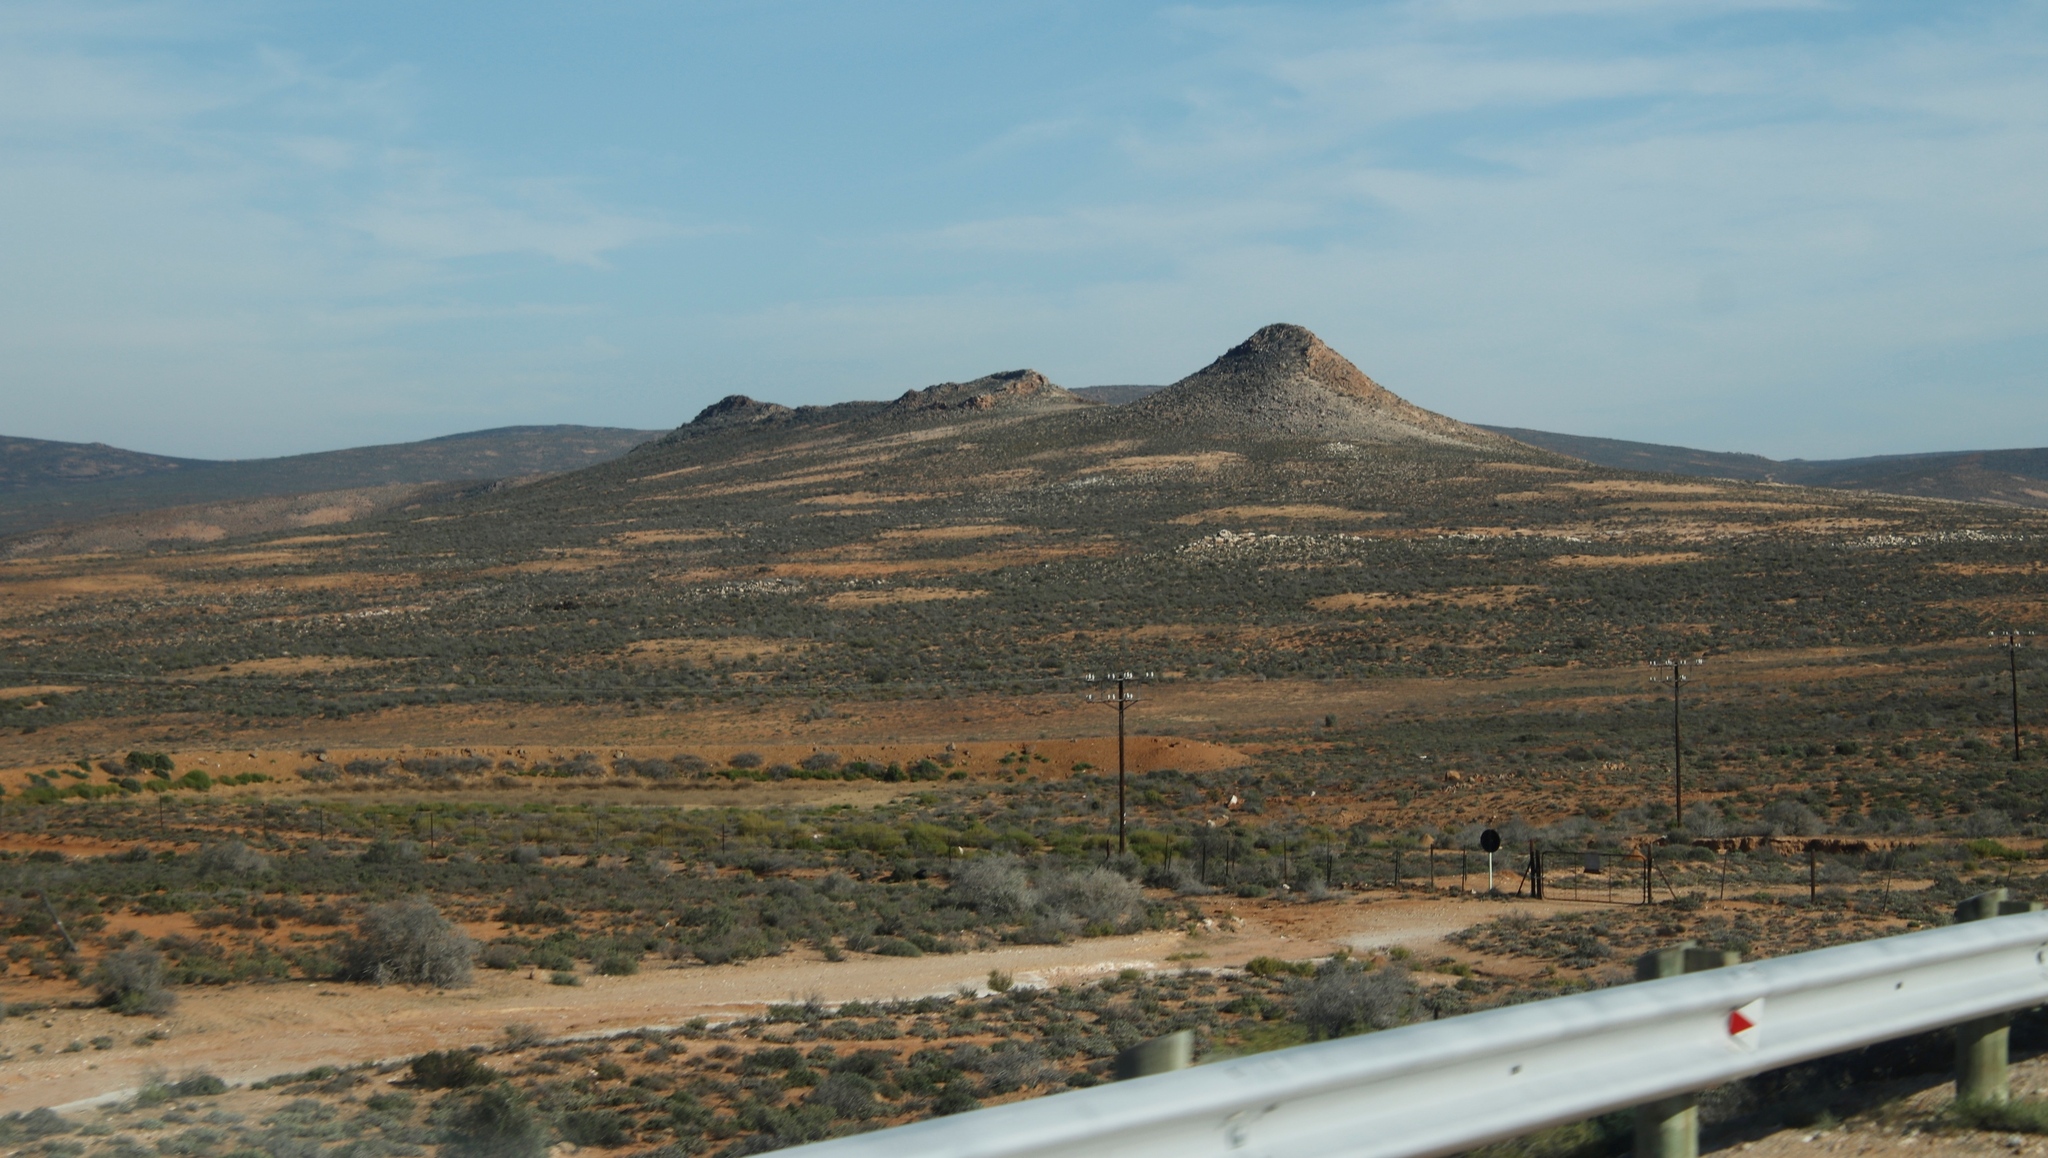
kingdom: Plantae
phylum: Tracheophyta
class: Magnoliopsida
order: Fabales
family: Fabaceae
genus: Vachellia
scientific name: Vachellia karroo
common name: Sweet thorn
